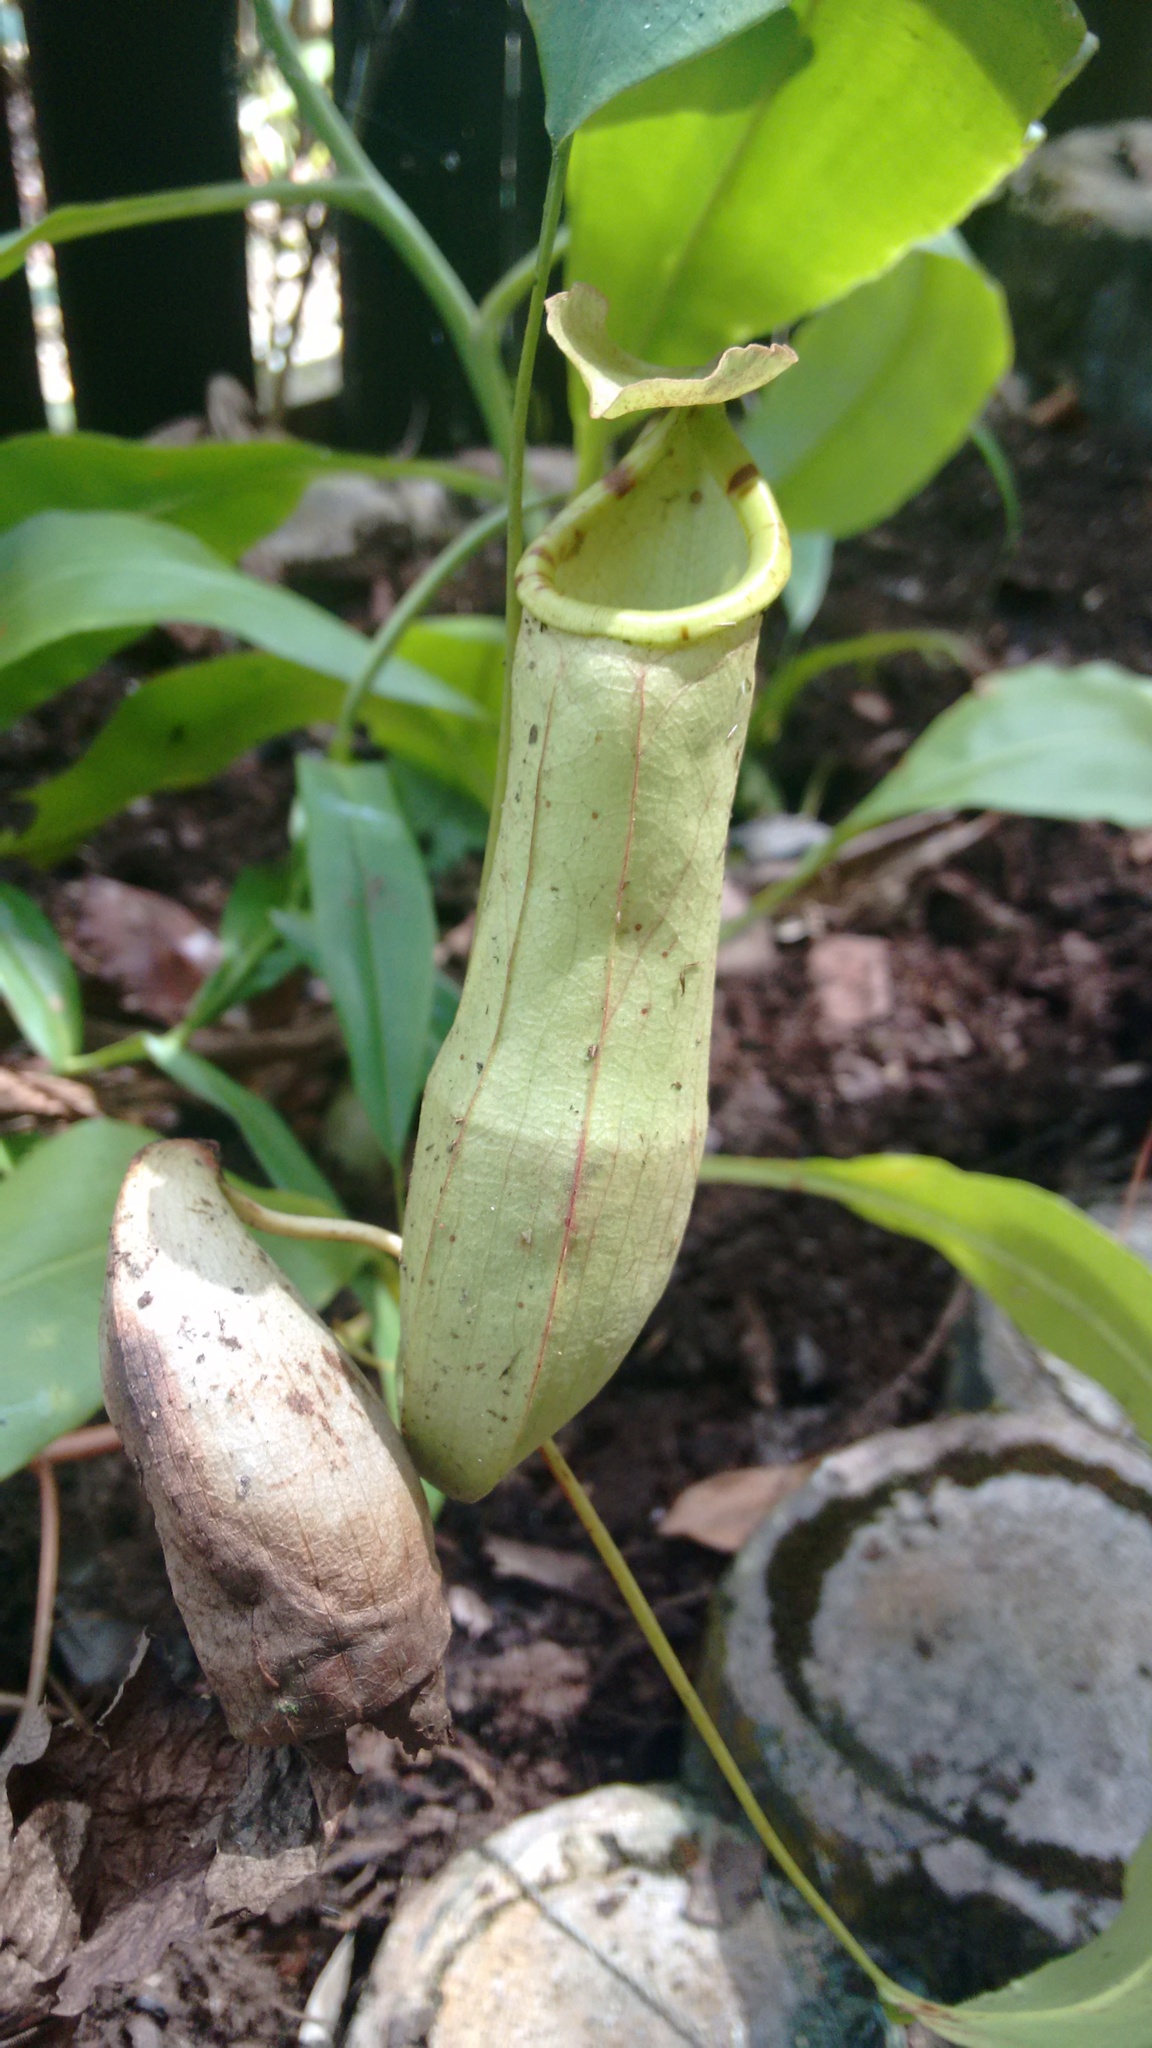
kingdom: Plantae
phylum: Tracheophyta
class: Magnoliopsida
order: Caryophyllales
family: Nepenthaceae
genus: Nepenthes
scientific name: Nepenthes mirabilis
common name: Tropical pitcherplant
